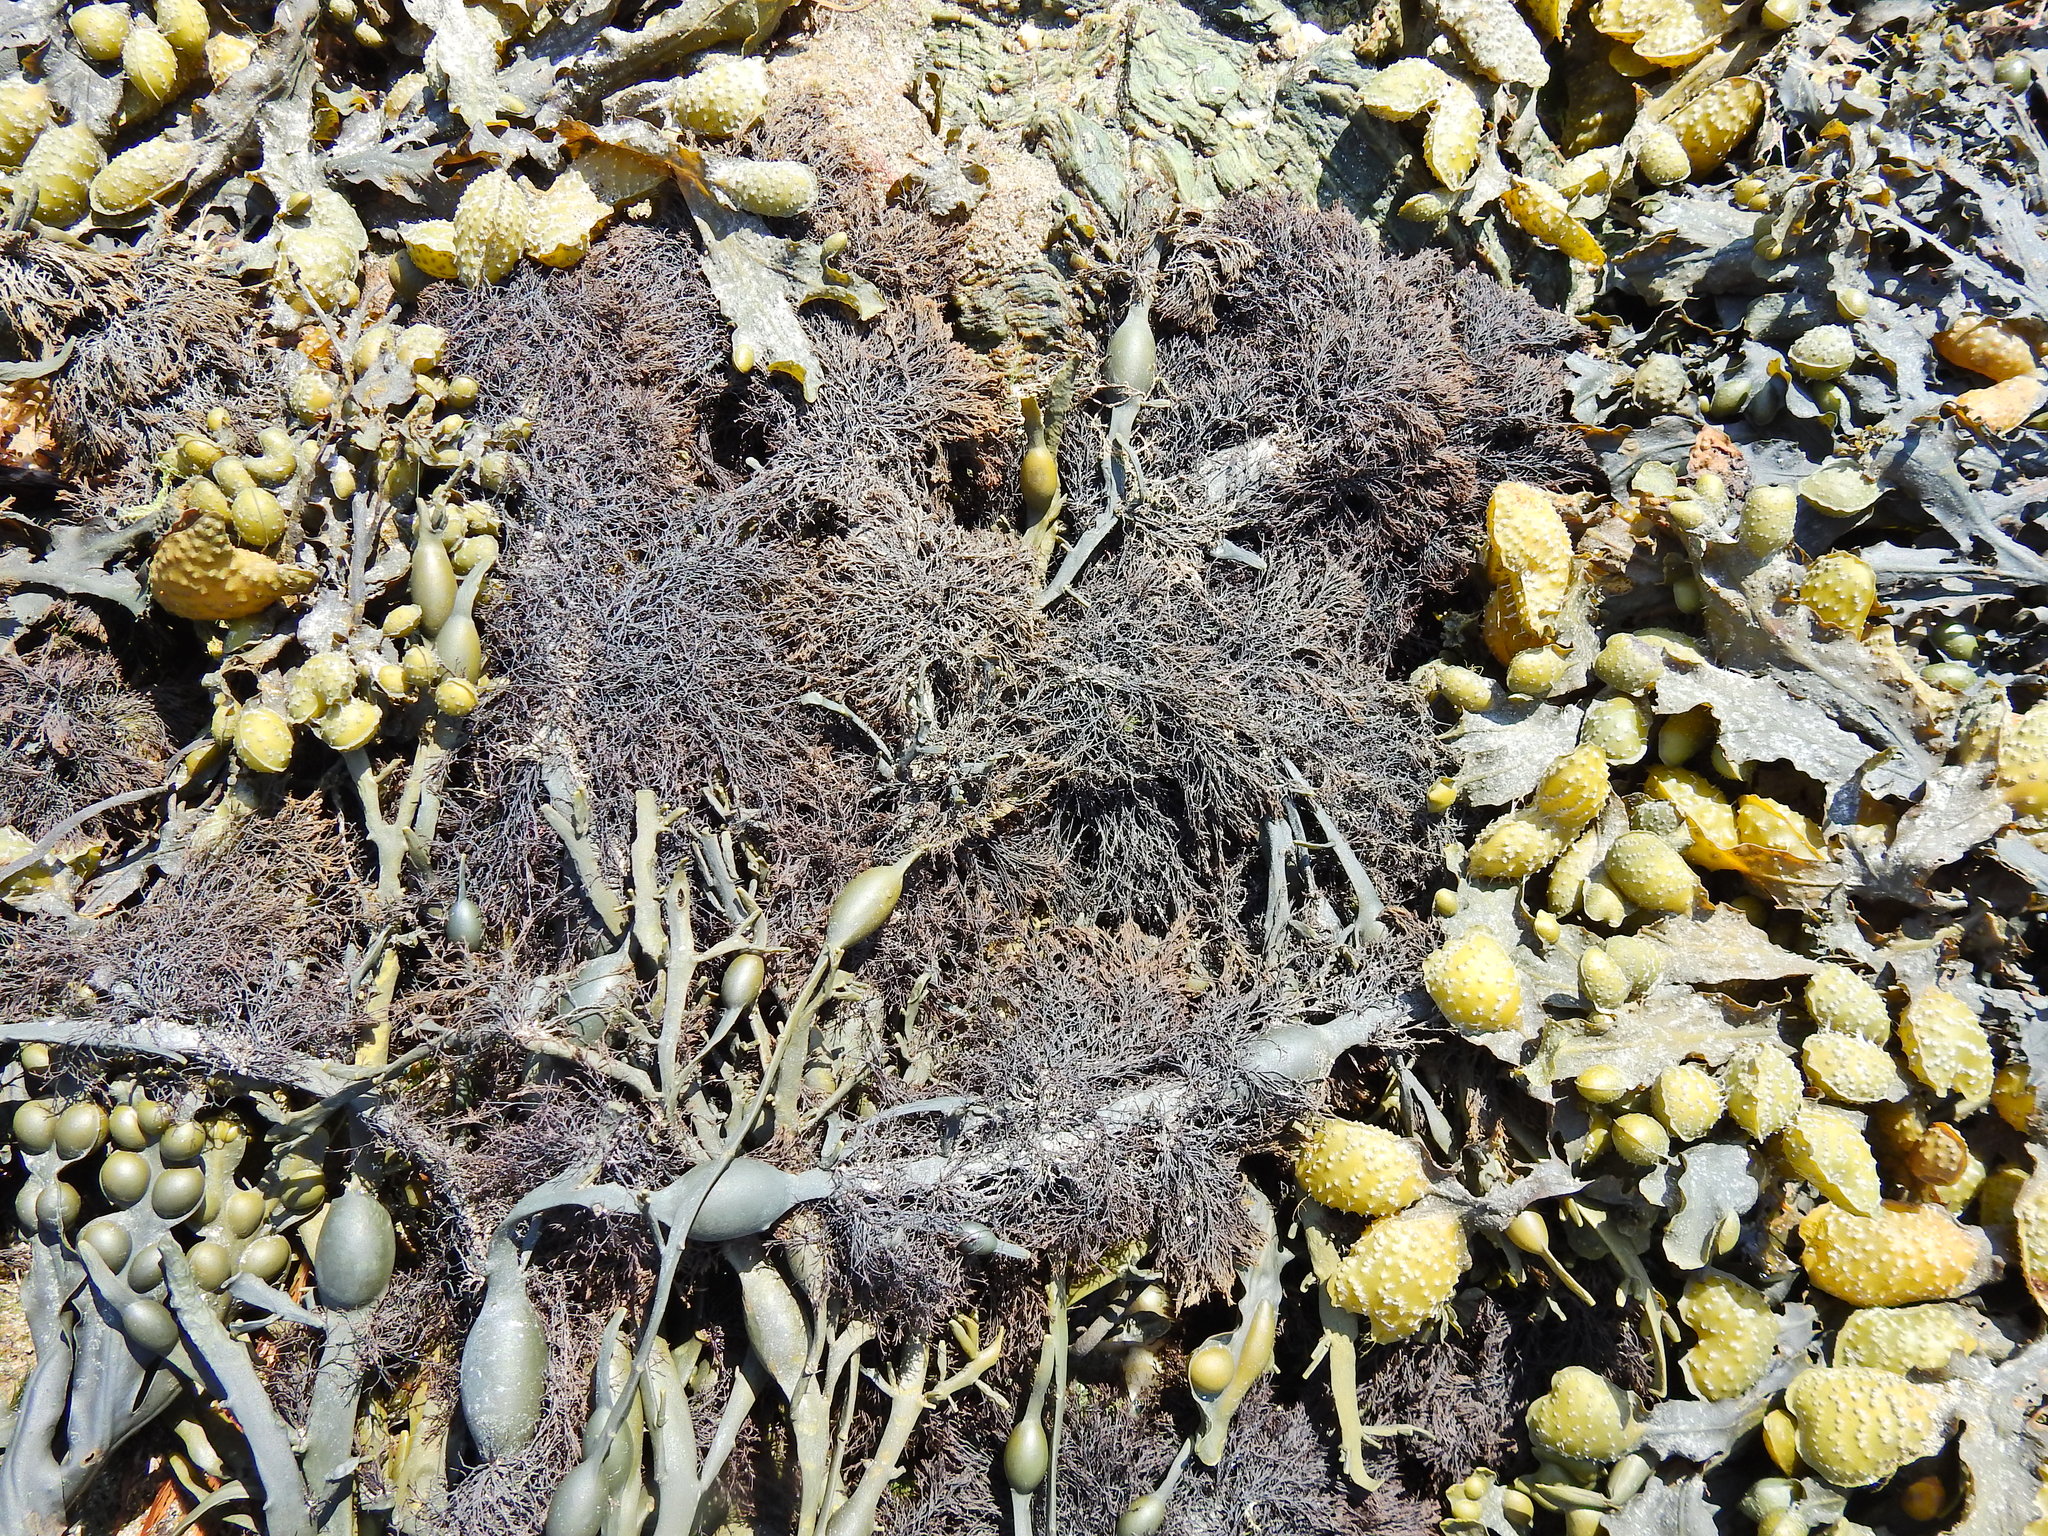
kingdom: Plantae
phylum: Rhodophyta
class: Florideophyceae
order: Ceramiales
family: Rhodomelaceae
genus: Vertebrata
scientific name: Vertebrata lanosa
